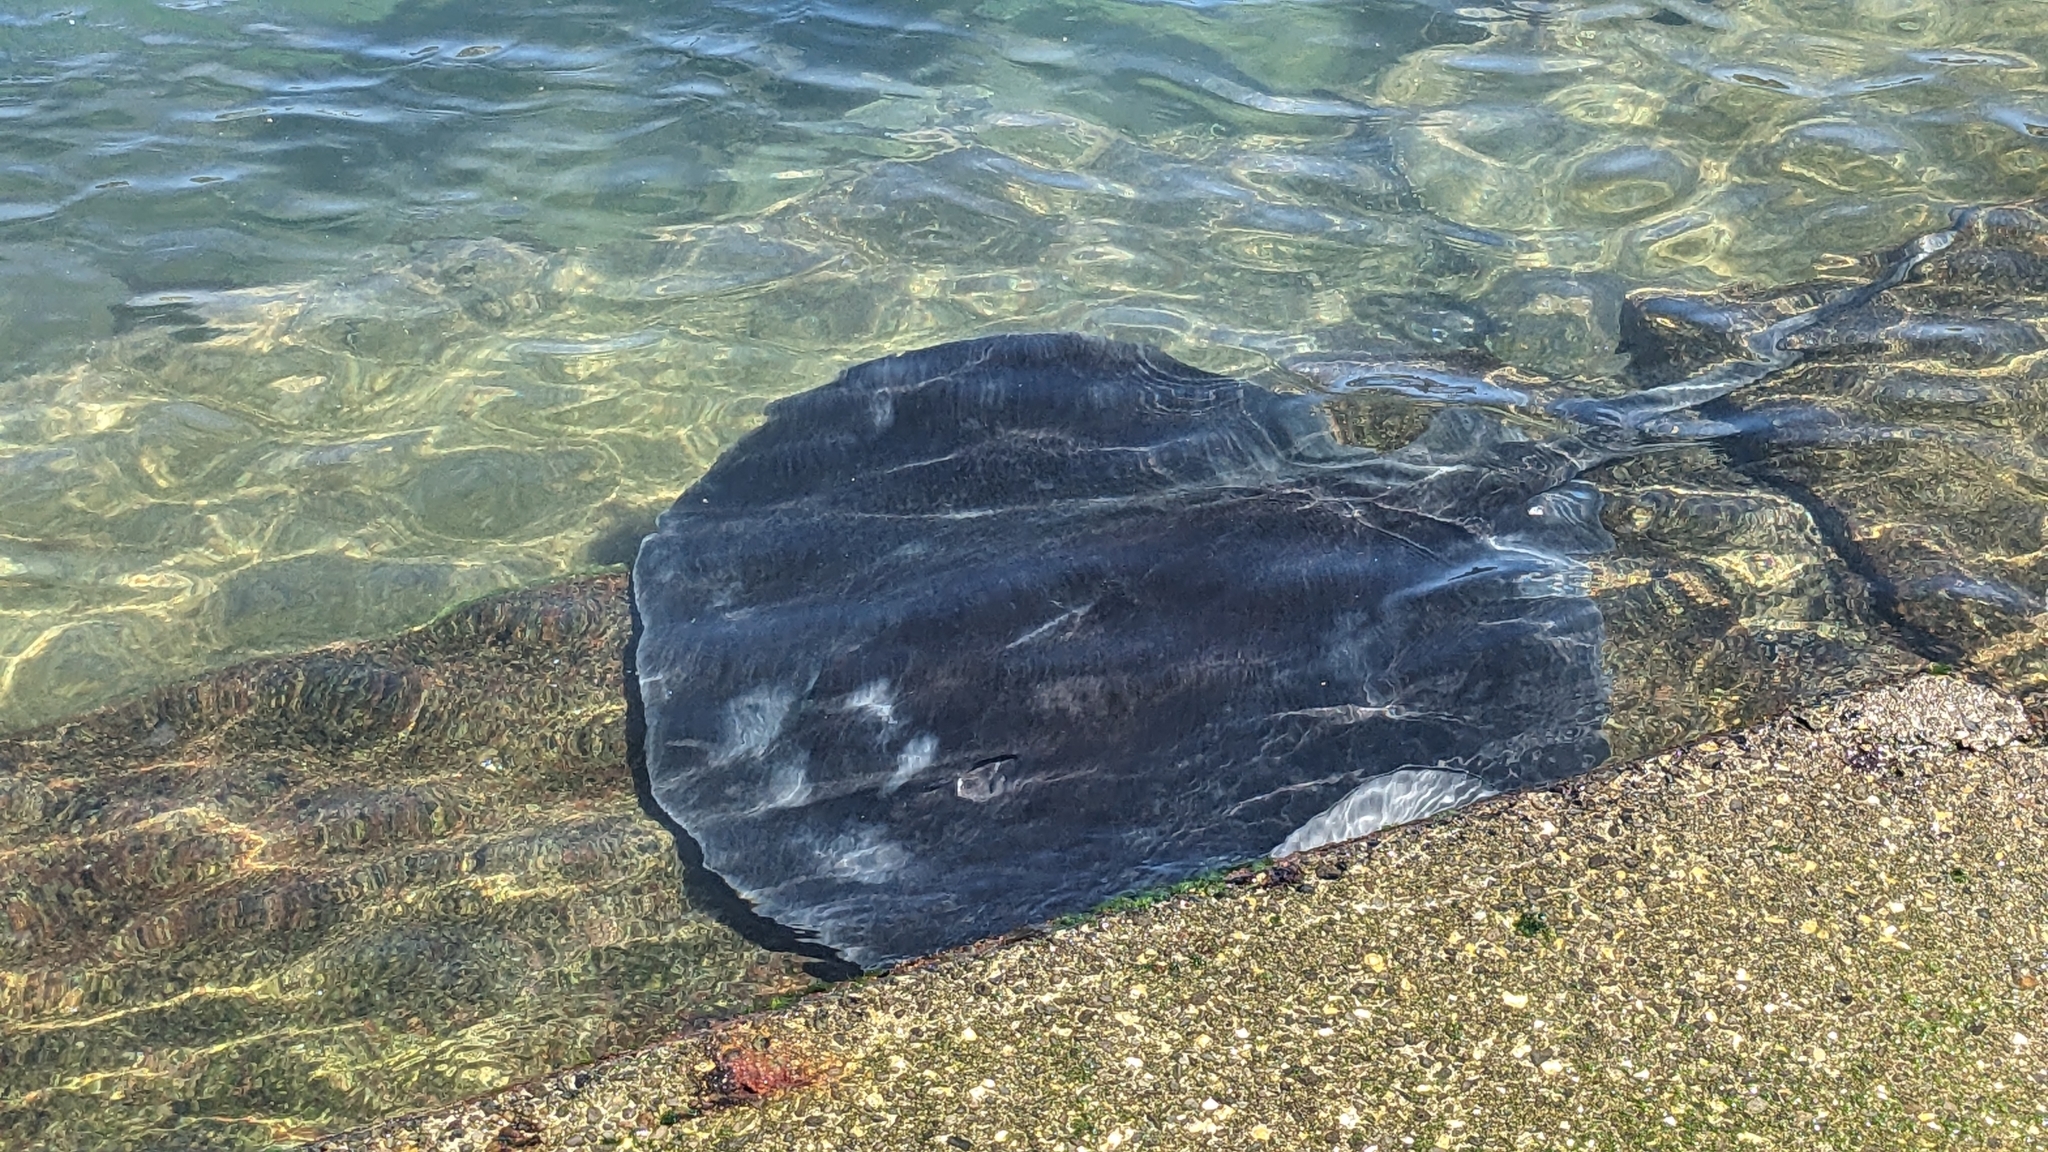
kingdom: Animalia
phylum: Chordata
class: Elasmobranchii
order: Myliobatiformes
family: Dasyatidae
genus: Bathytoshia
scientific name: Bathytoshia brevicaudata
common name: Short-tail stingray
